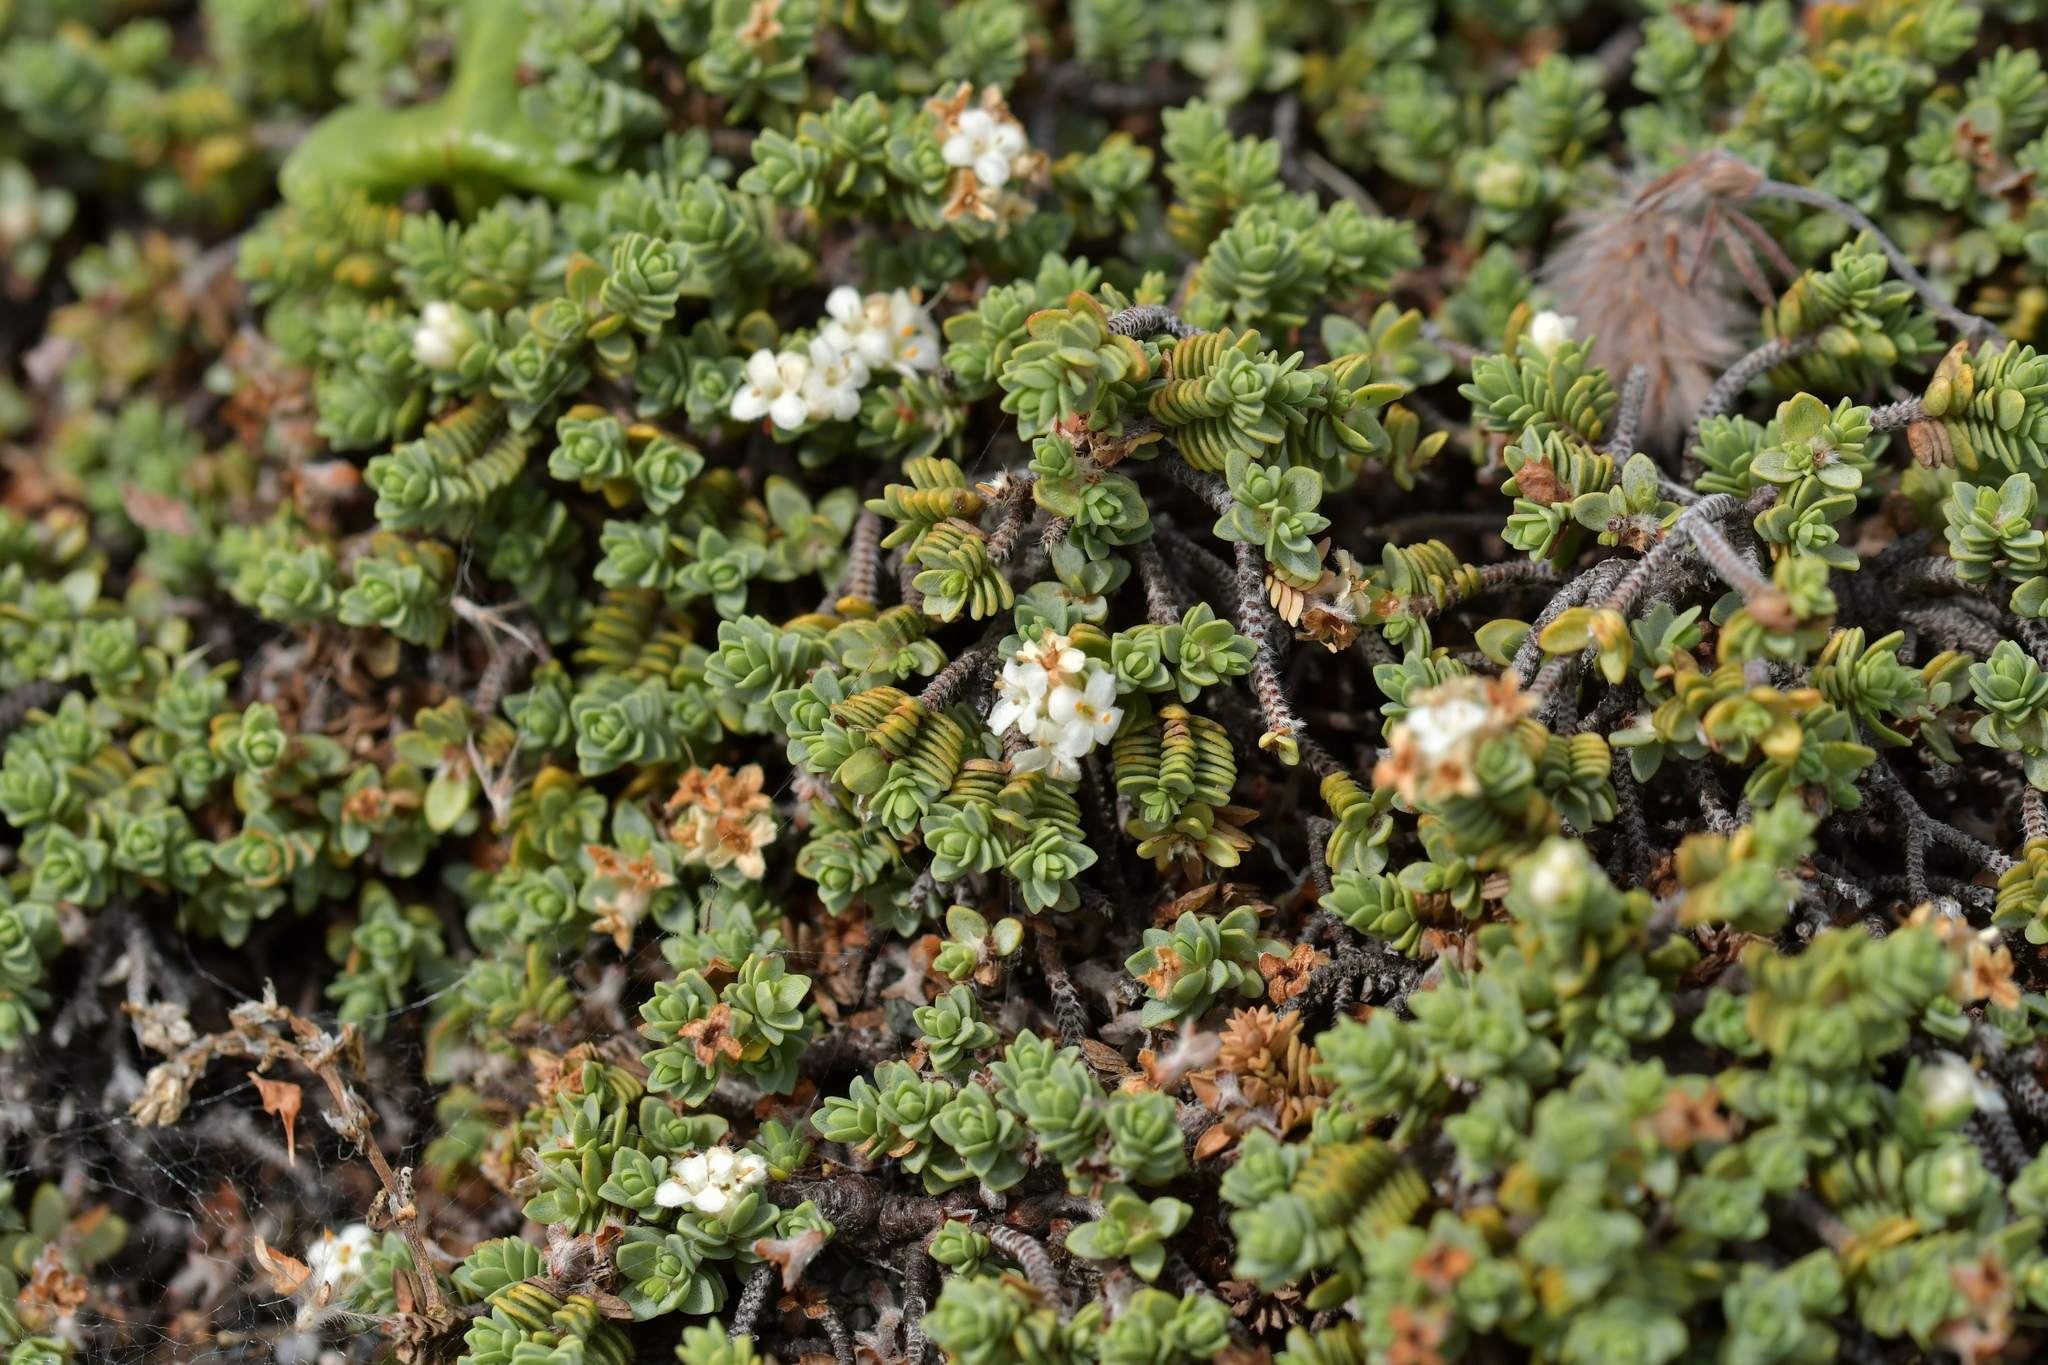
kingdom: Plantae
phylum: Tracheophyta
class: Magnoliopsida
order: Malvales
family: Thymelaeaceae
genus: Pimelea
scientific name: Pimelea carnosa
